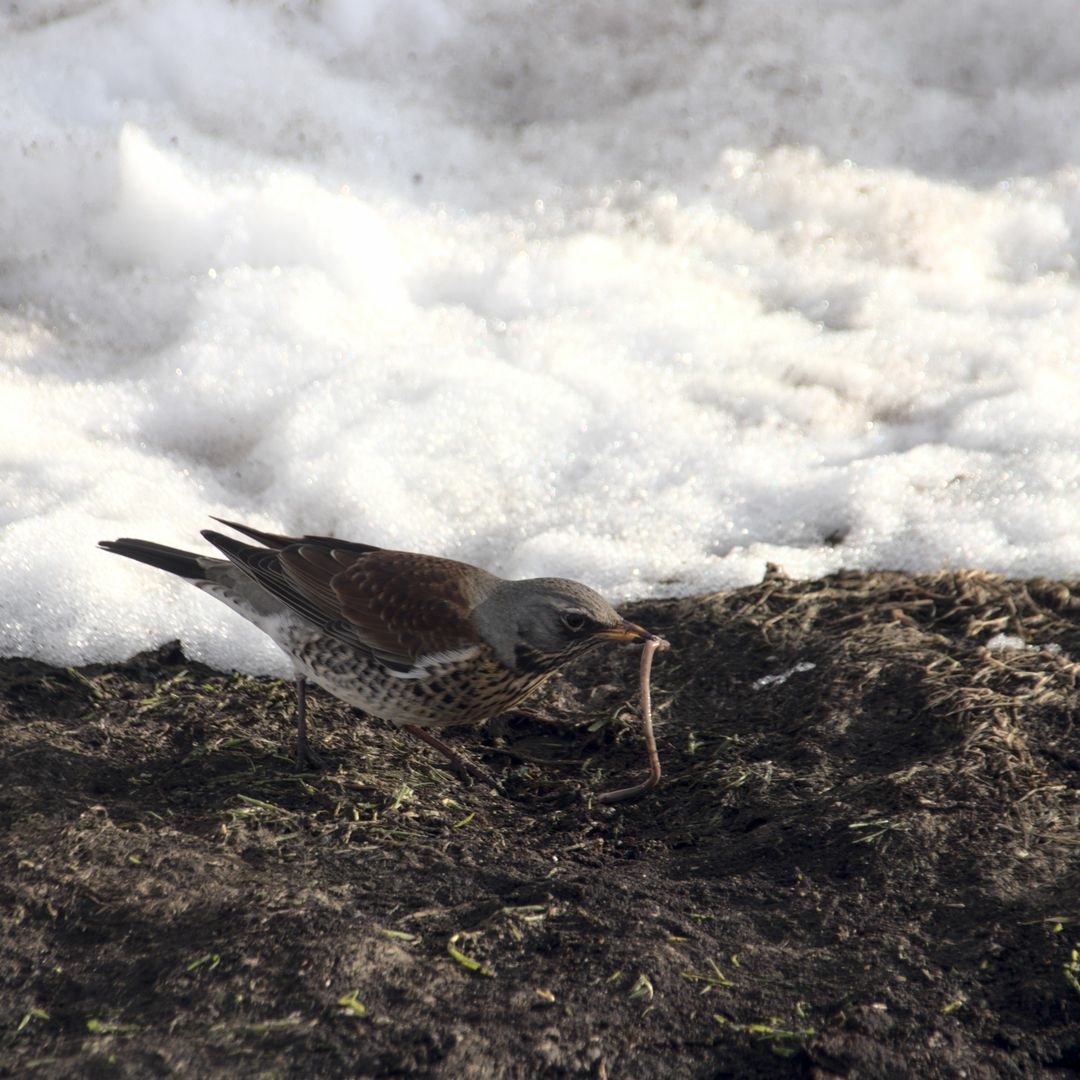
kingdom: Animalia
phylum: Chordata
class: Aves
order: Passeriformes
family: Turdidae
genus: Turdus
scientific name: Turdus pilaris
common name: Fieldfare
